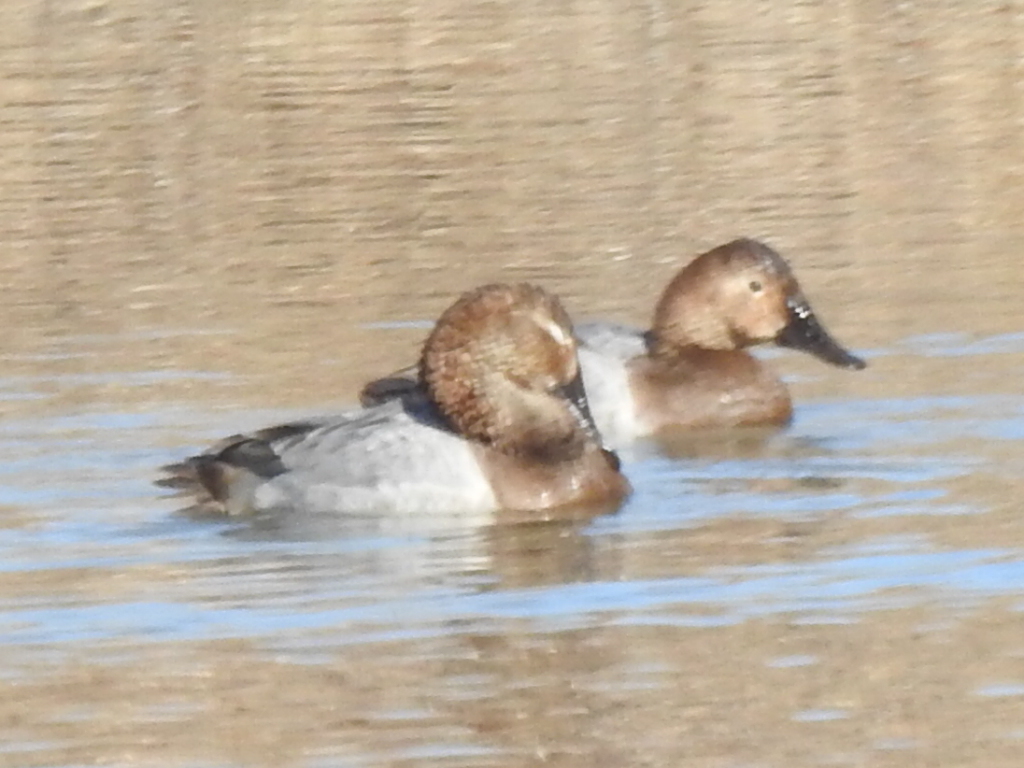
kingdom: Animalia
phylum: Chordata
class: Aves
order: Anseriformes
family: Anatidae
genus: Aythya
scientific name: Aythya valisineria
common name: Canvasback
